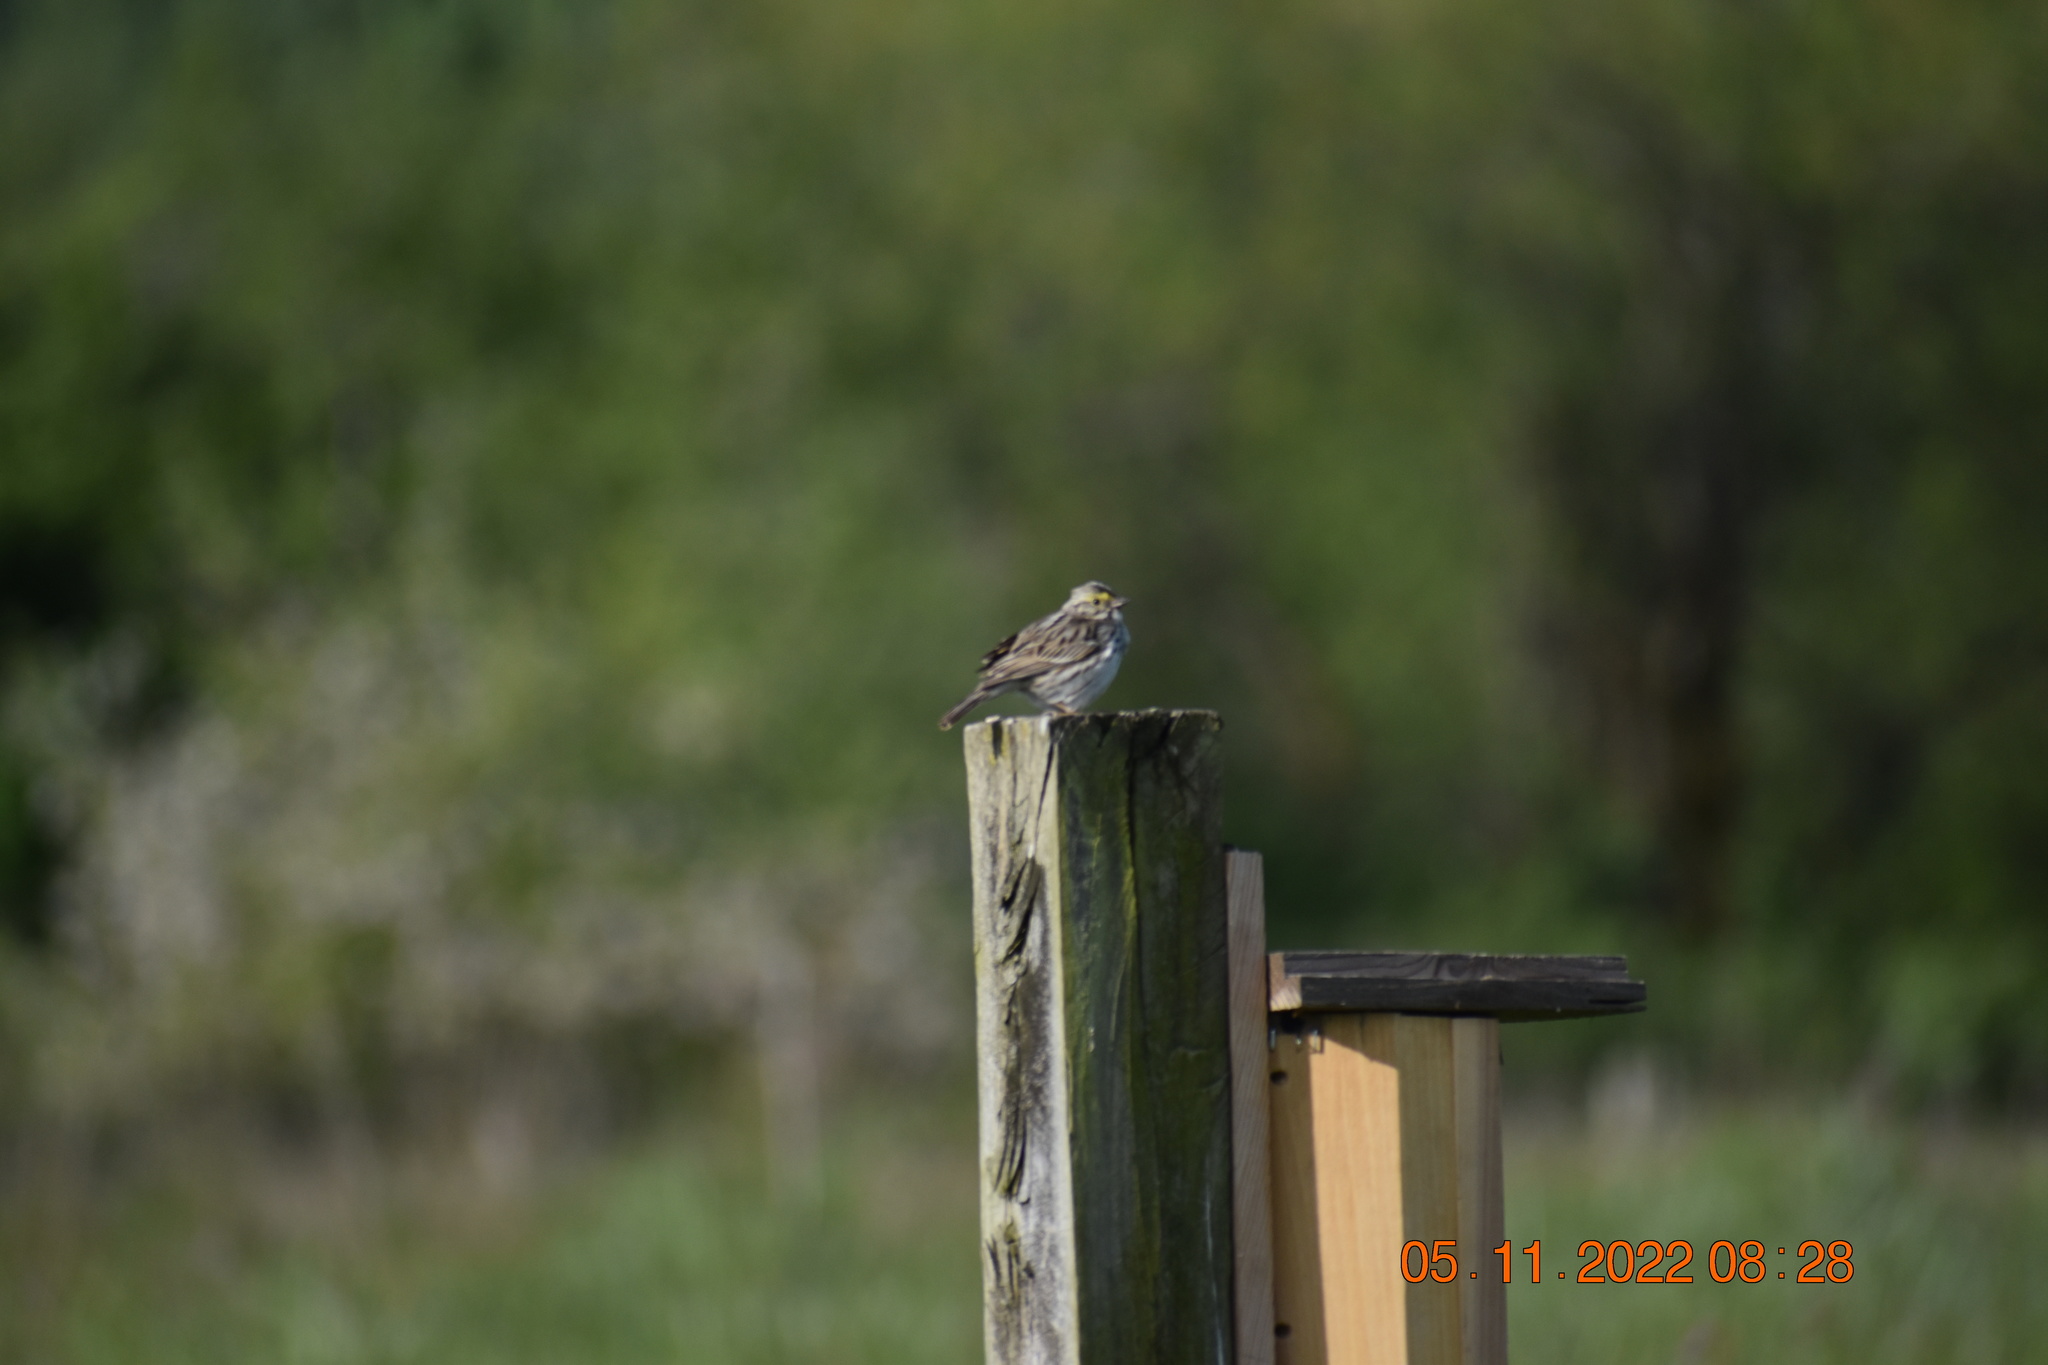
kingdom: Animalia
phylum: Chordata
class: Aves
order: Passeriformes
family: Passerellidae
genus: Passerculus
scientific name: Passerculus sandwichensis
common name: Savannah sparrow
